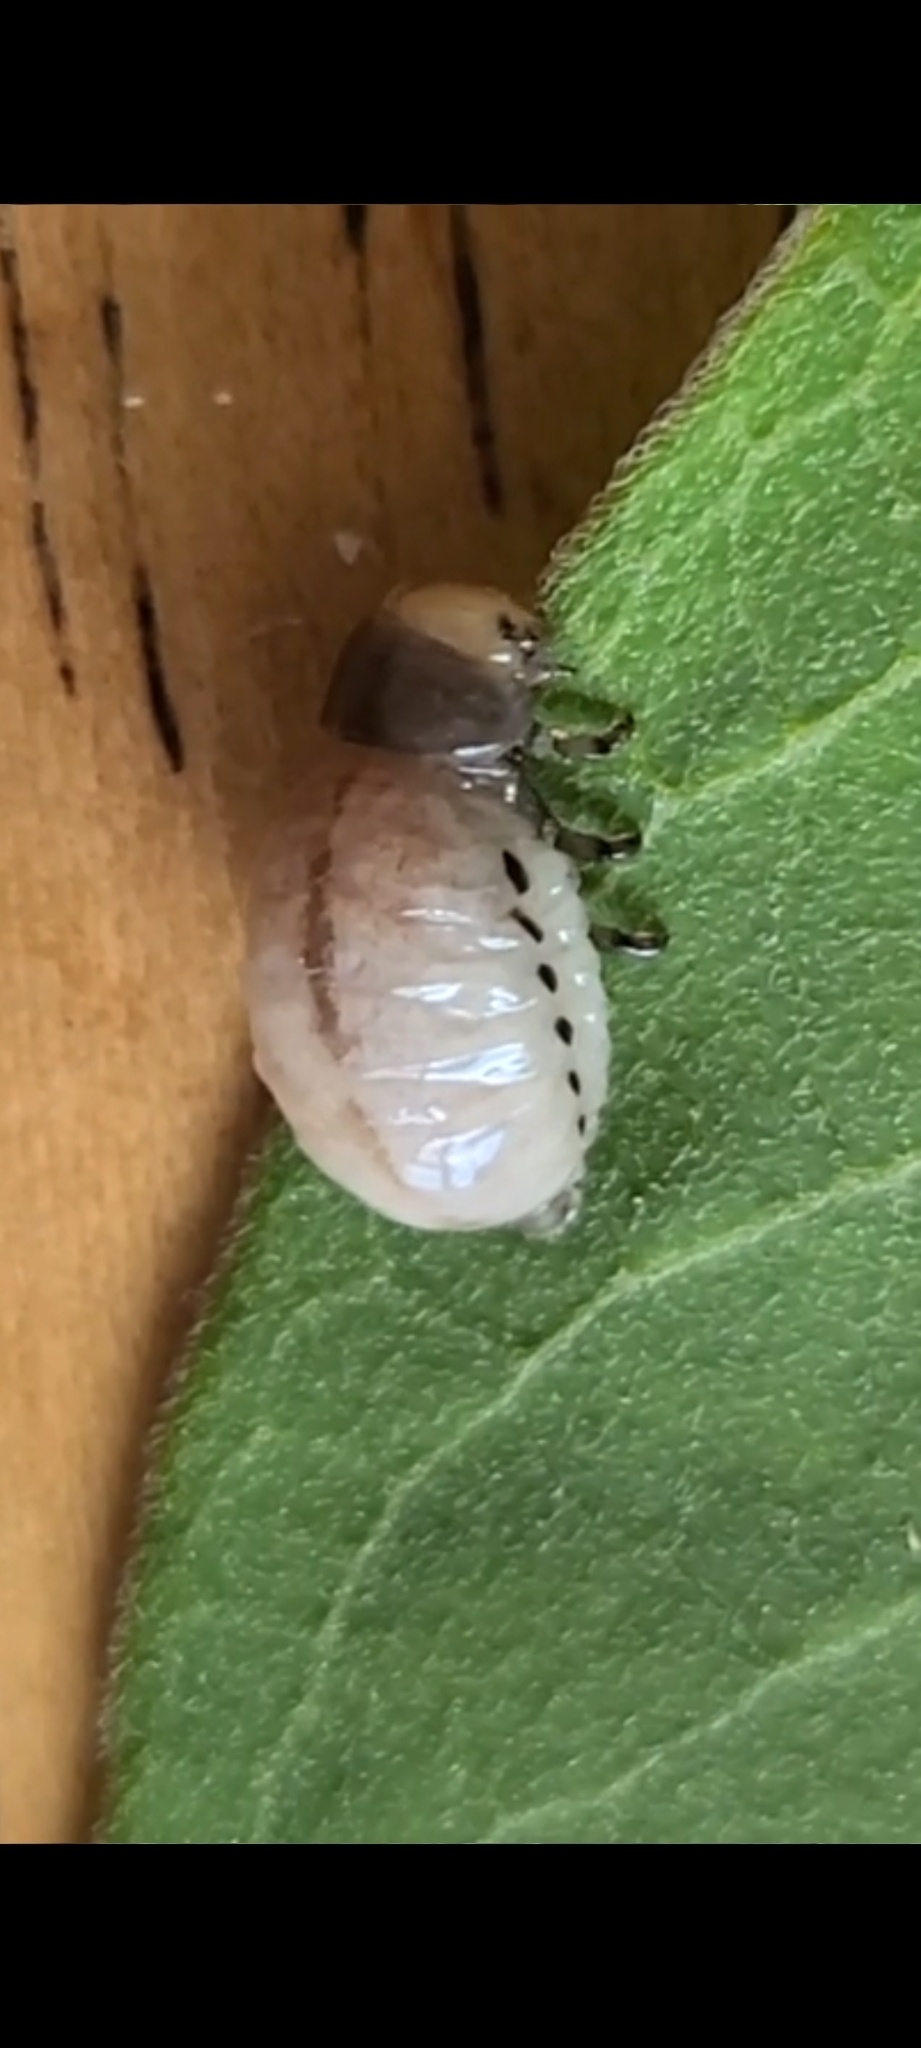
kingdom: Animalia
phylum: Arthropoda
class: Insecta
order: Coleoptera
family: Chrysomelidae
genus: Labidomera
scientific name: Labidomera clivicollis
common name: Swamp milkweed leaf beetle
